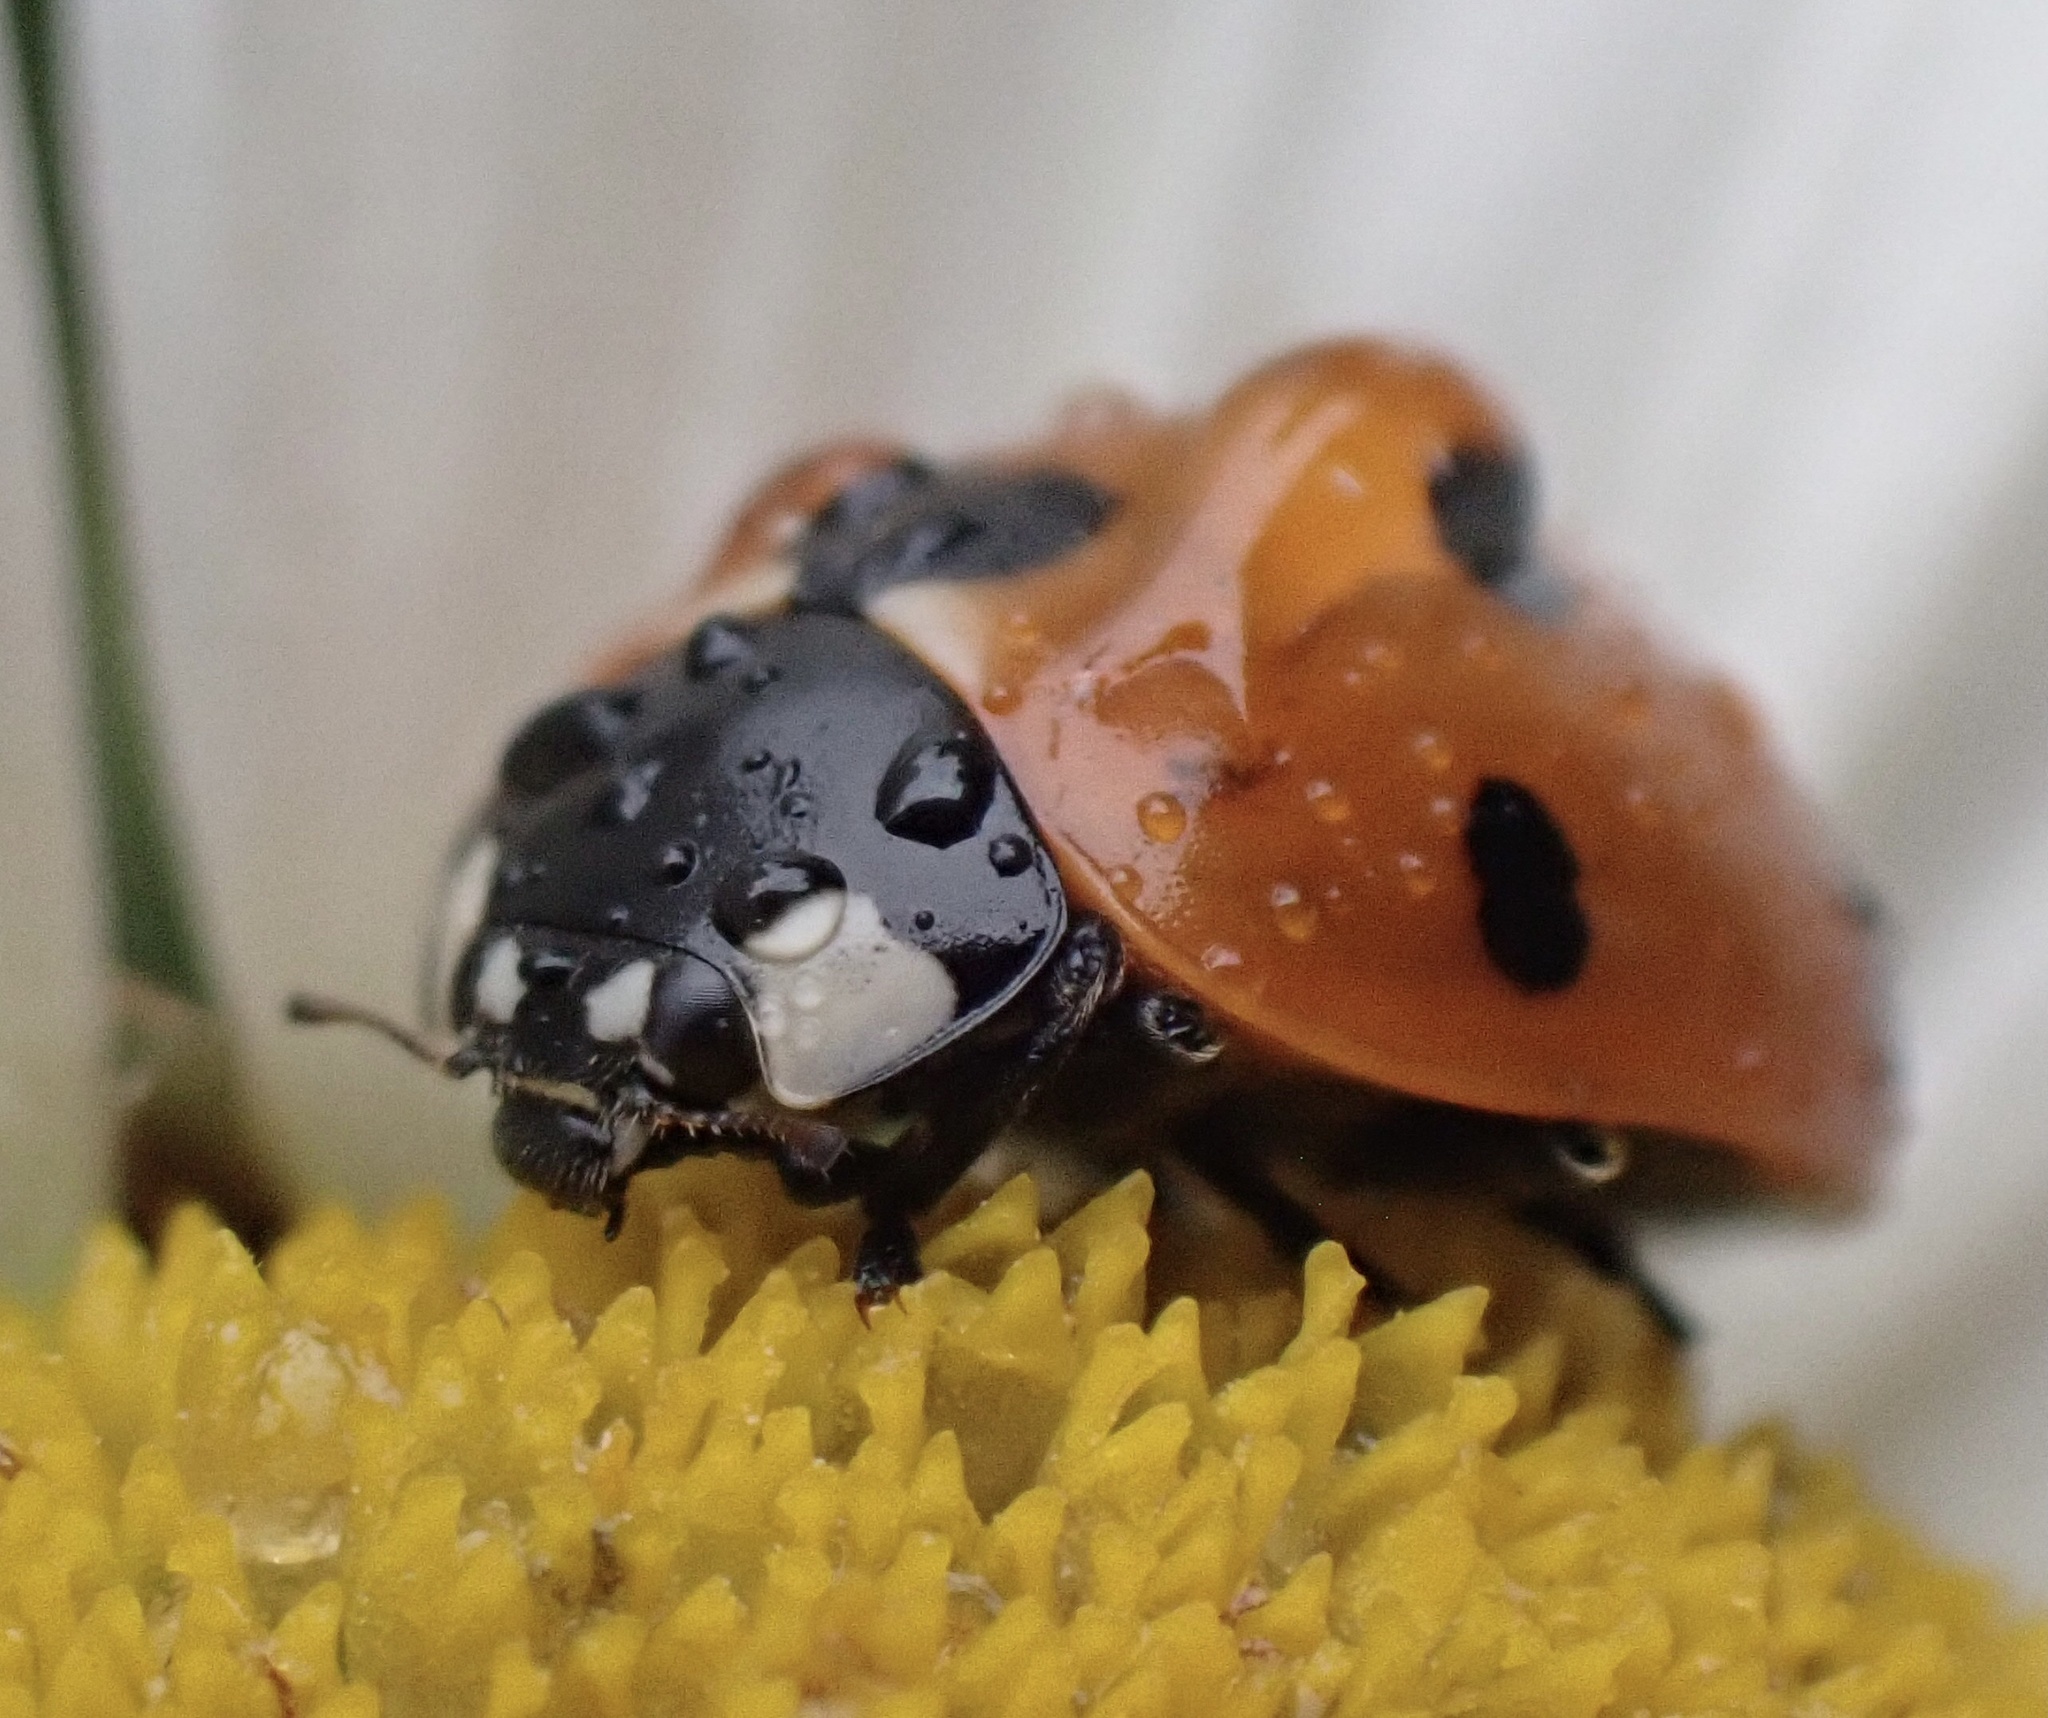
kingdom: Animalia
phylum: Arthropoda
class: Insecta
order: Coleoptera
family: Coccinellidae
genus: Coccinella
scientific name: Coccinella septempunctata
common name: Sevenspotted lady beetle
